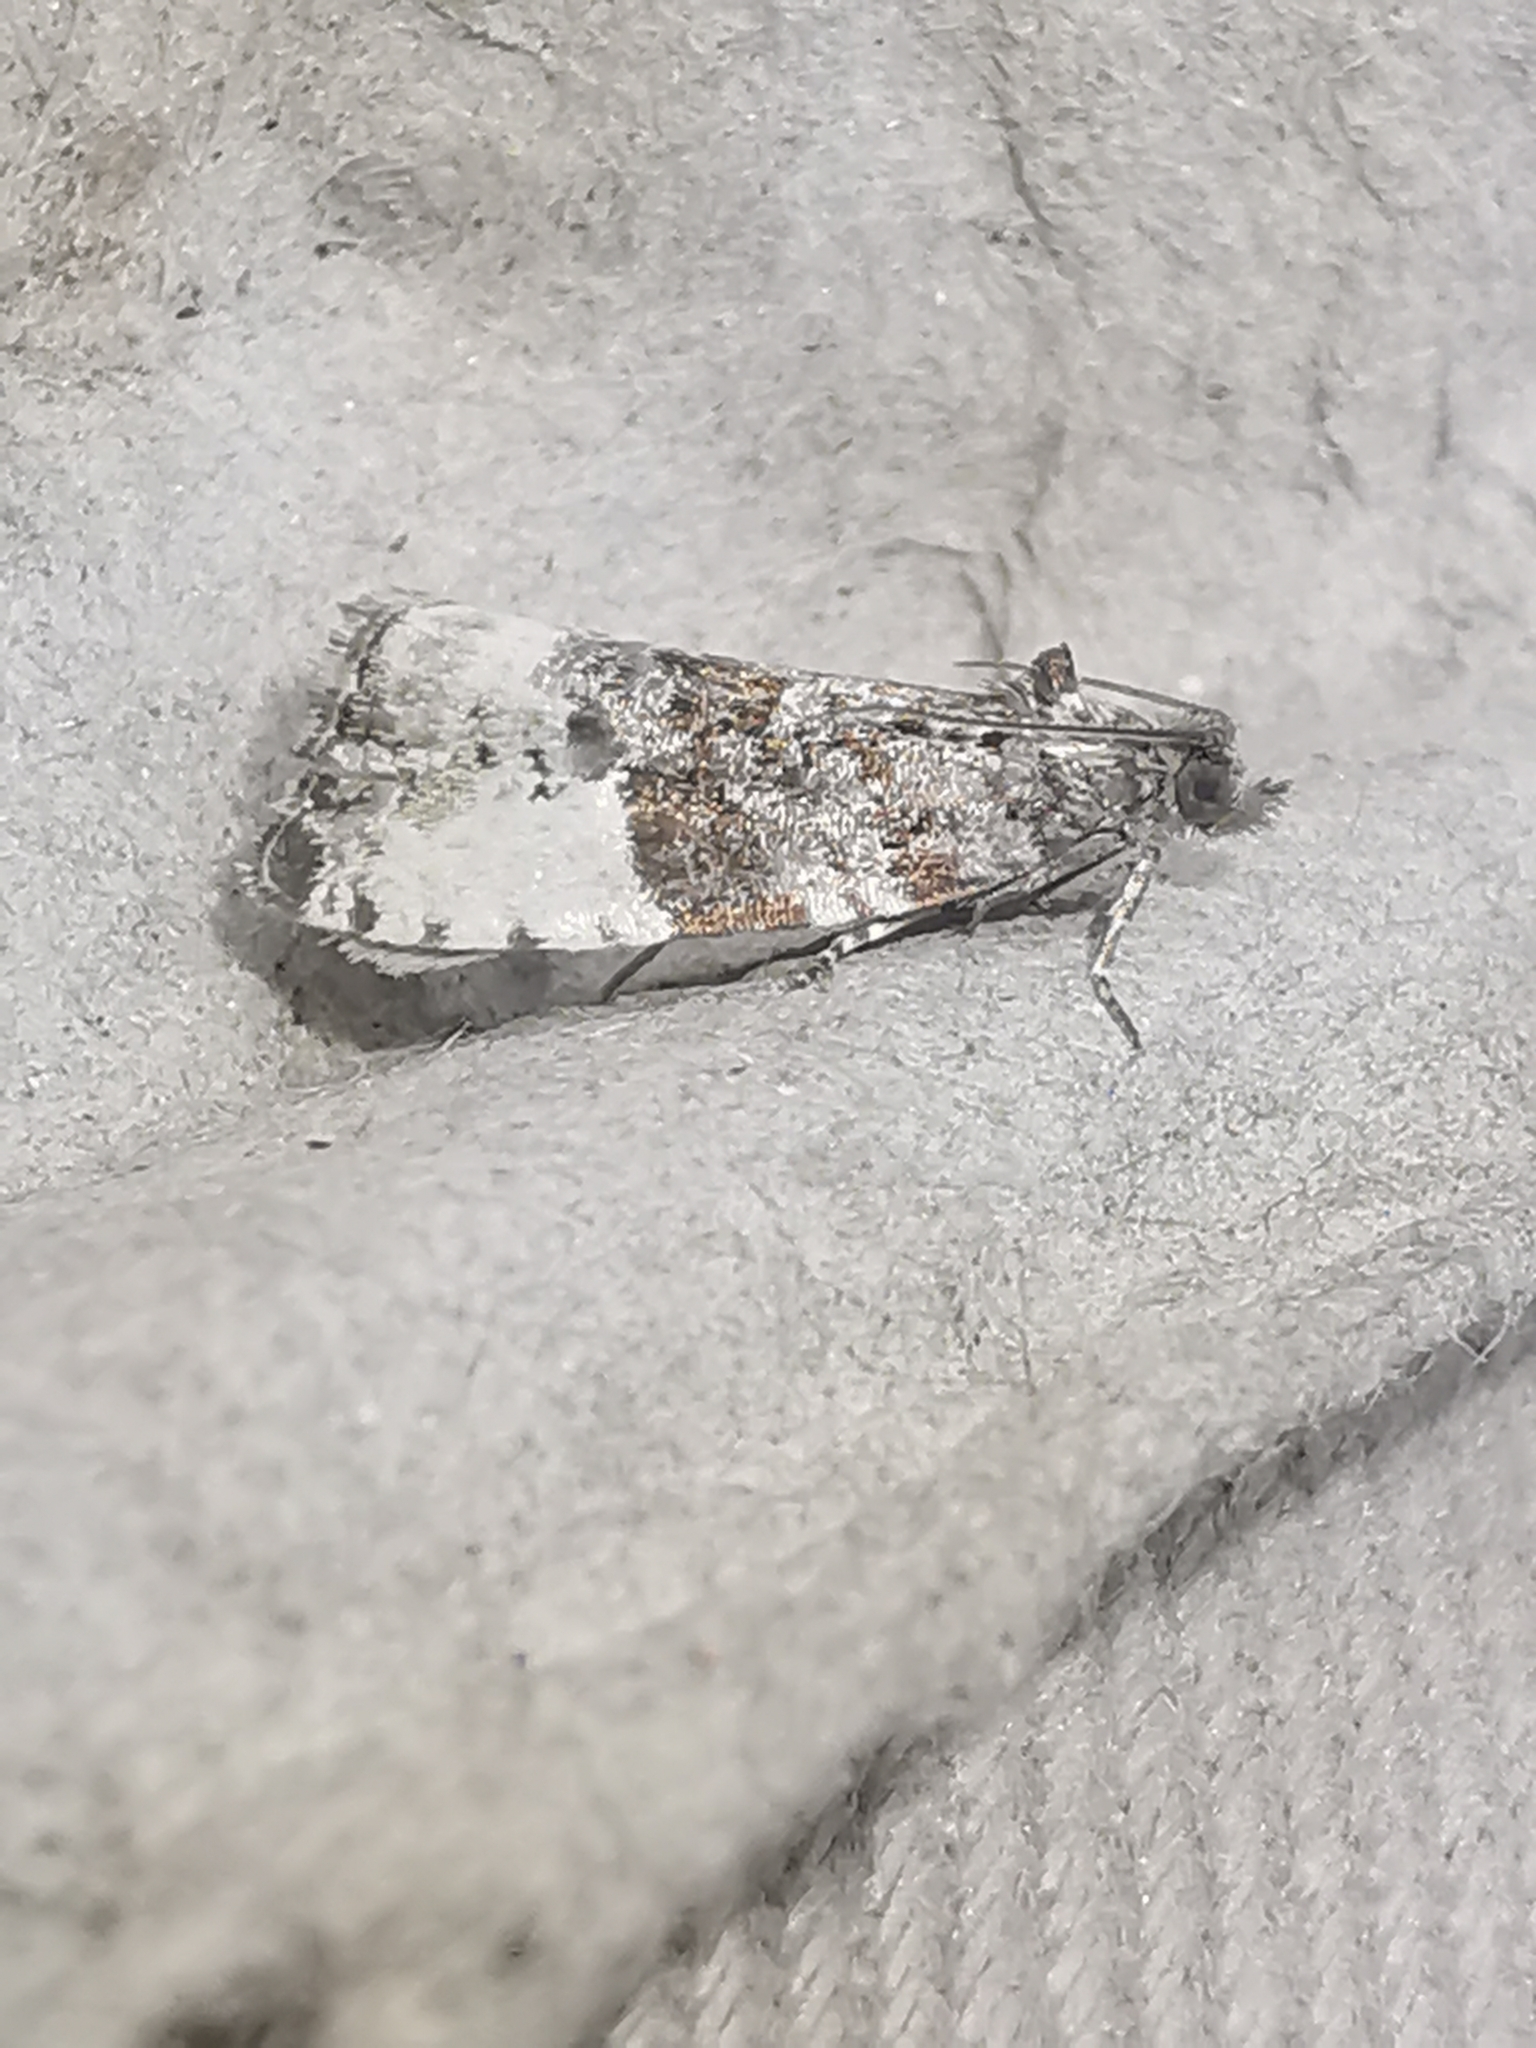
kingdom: Animalia
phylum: Arthropoda
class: Insecta
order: Lepidoptera
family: Tortricidae
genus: Hedya
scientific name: Hedya pruniana
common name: Plum tortrix
